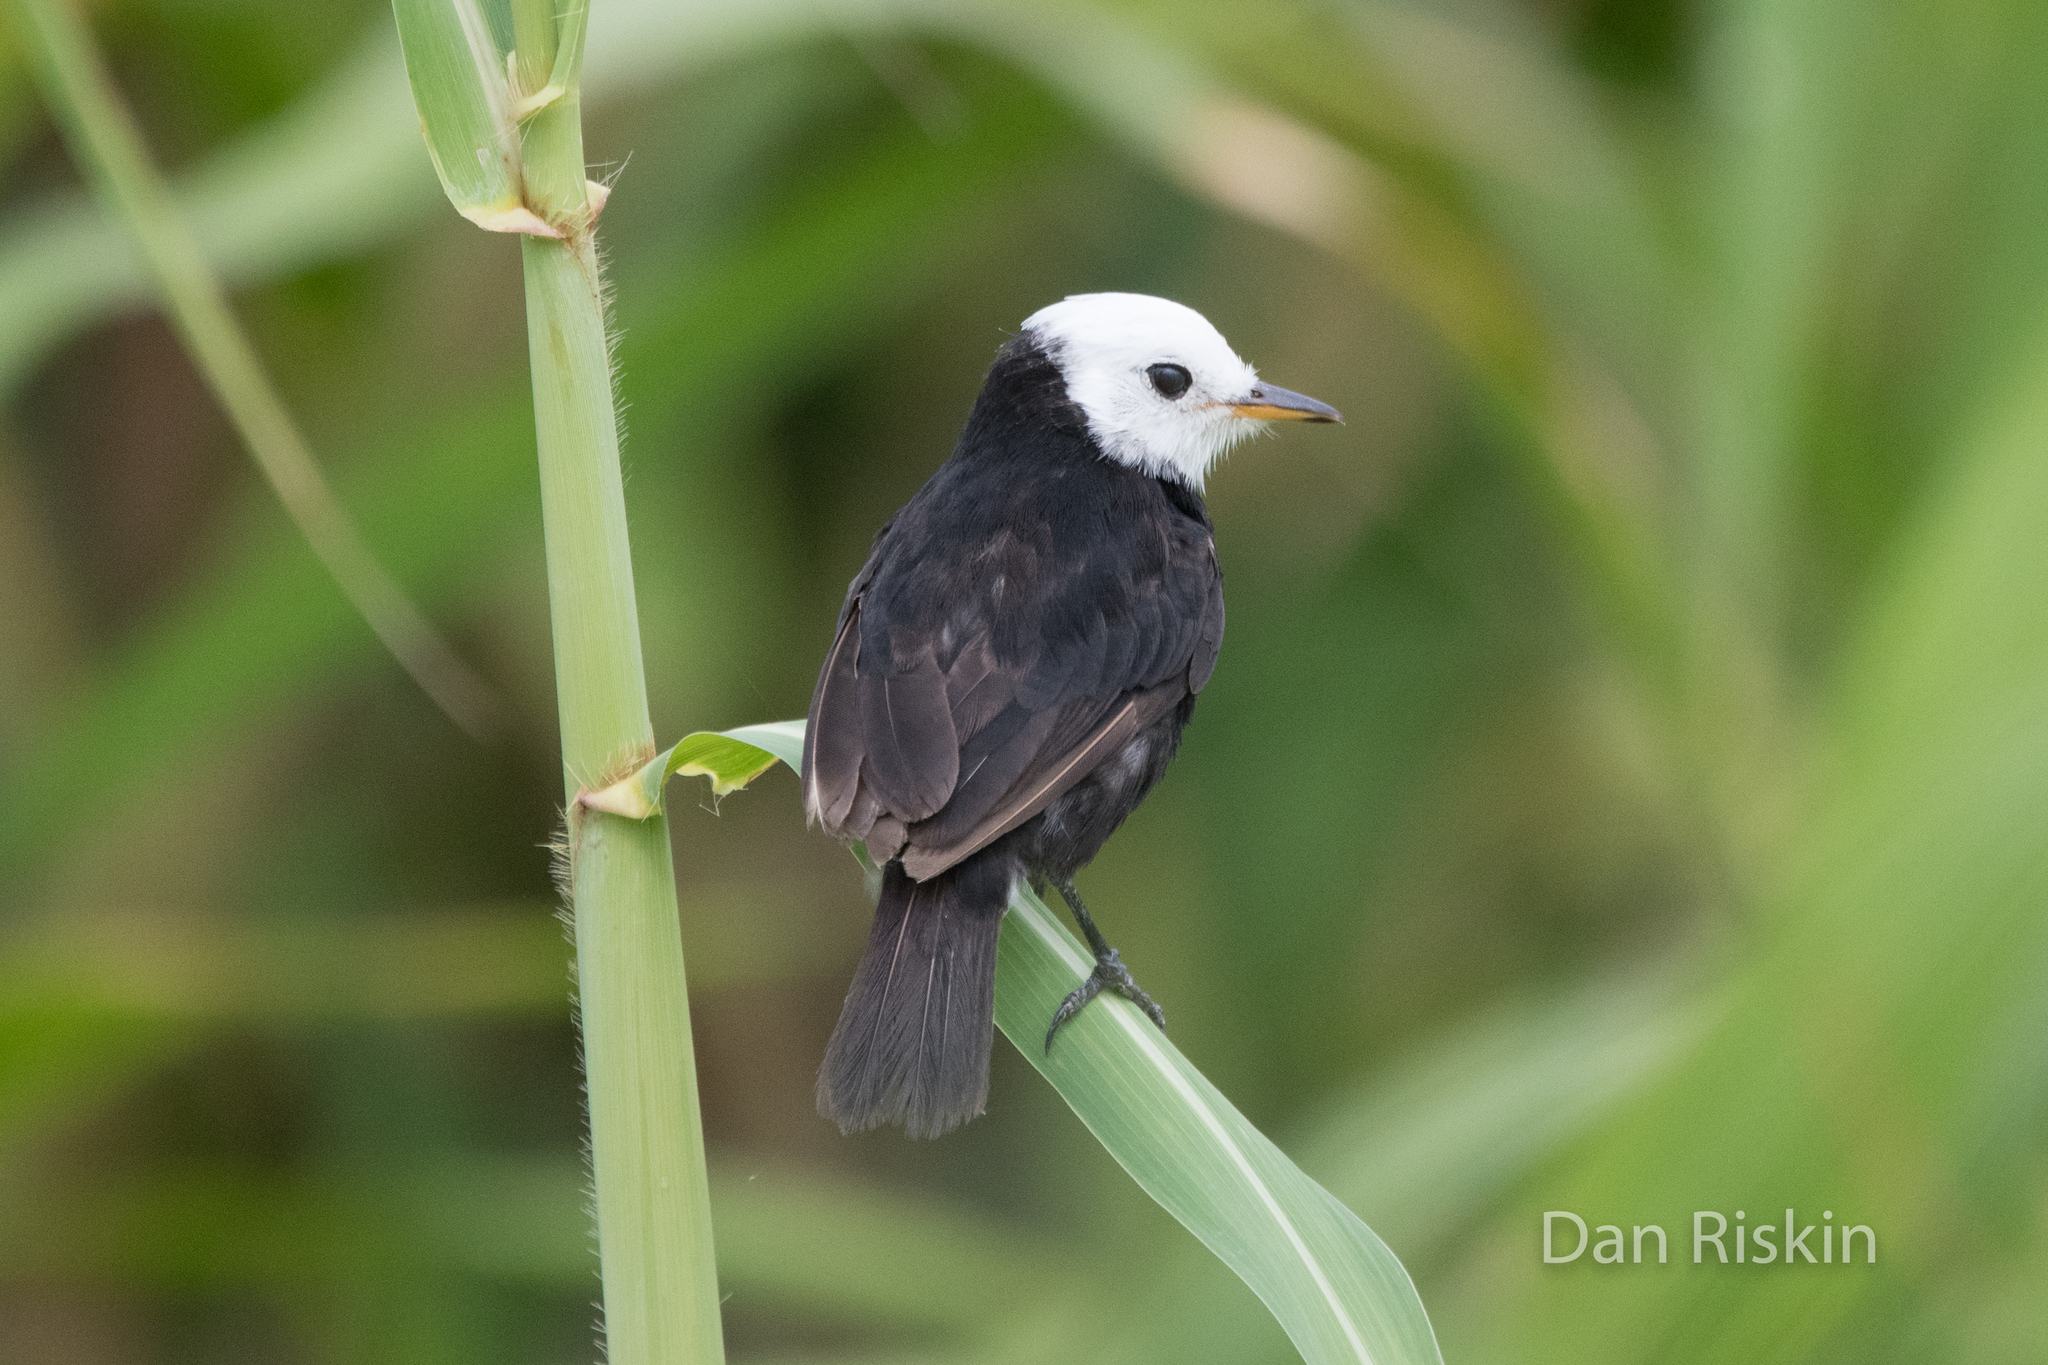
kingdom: Animalia
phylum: Chordata
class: Aves
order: Passeriformes
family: Tyrannidae
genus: Arundinicola
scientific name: Arundinicola leucocephala
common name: White-headed marsh tyrant
